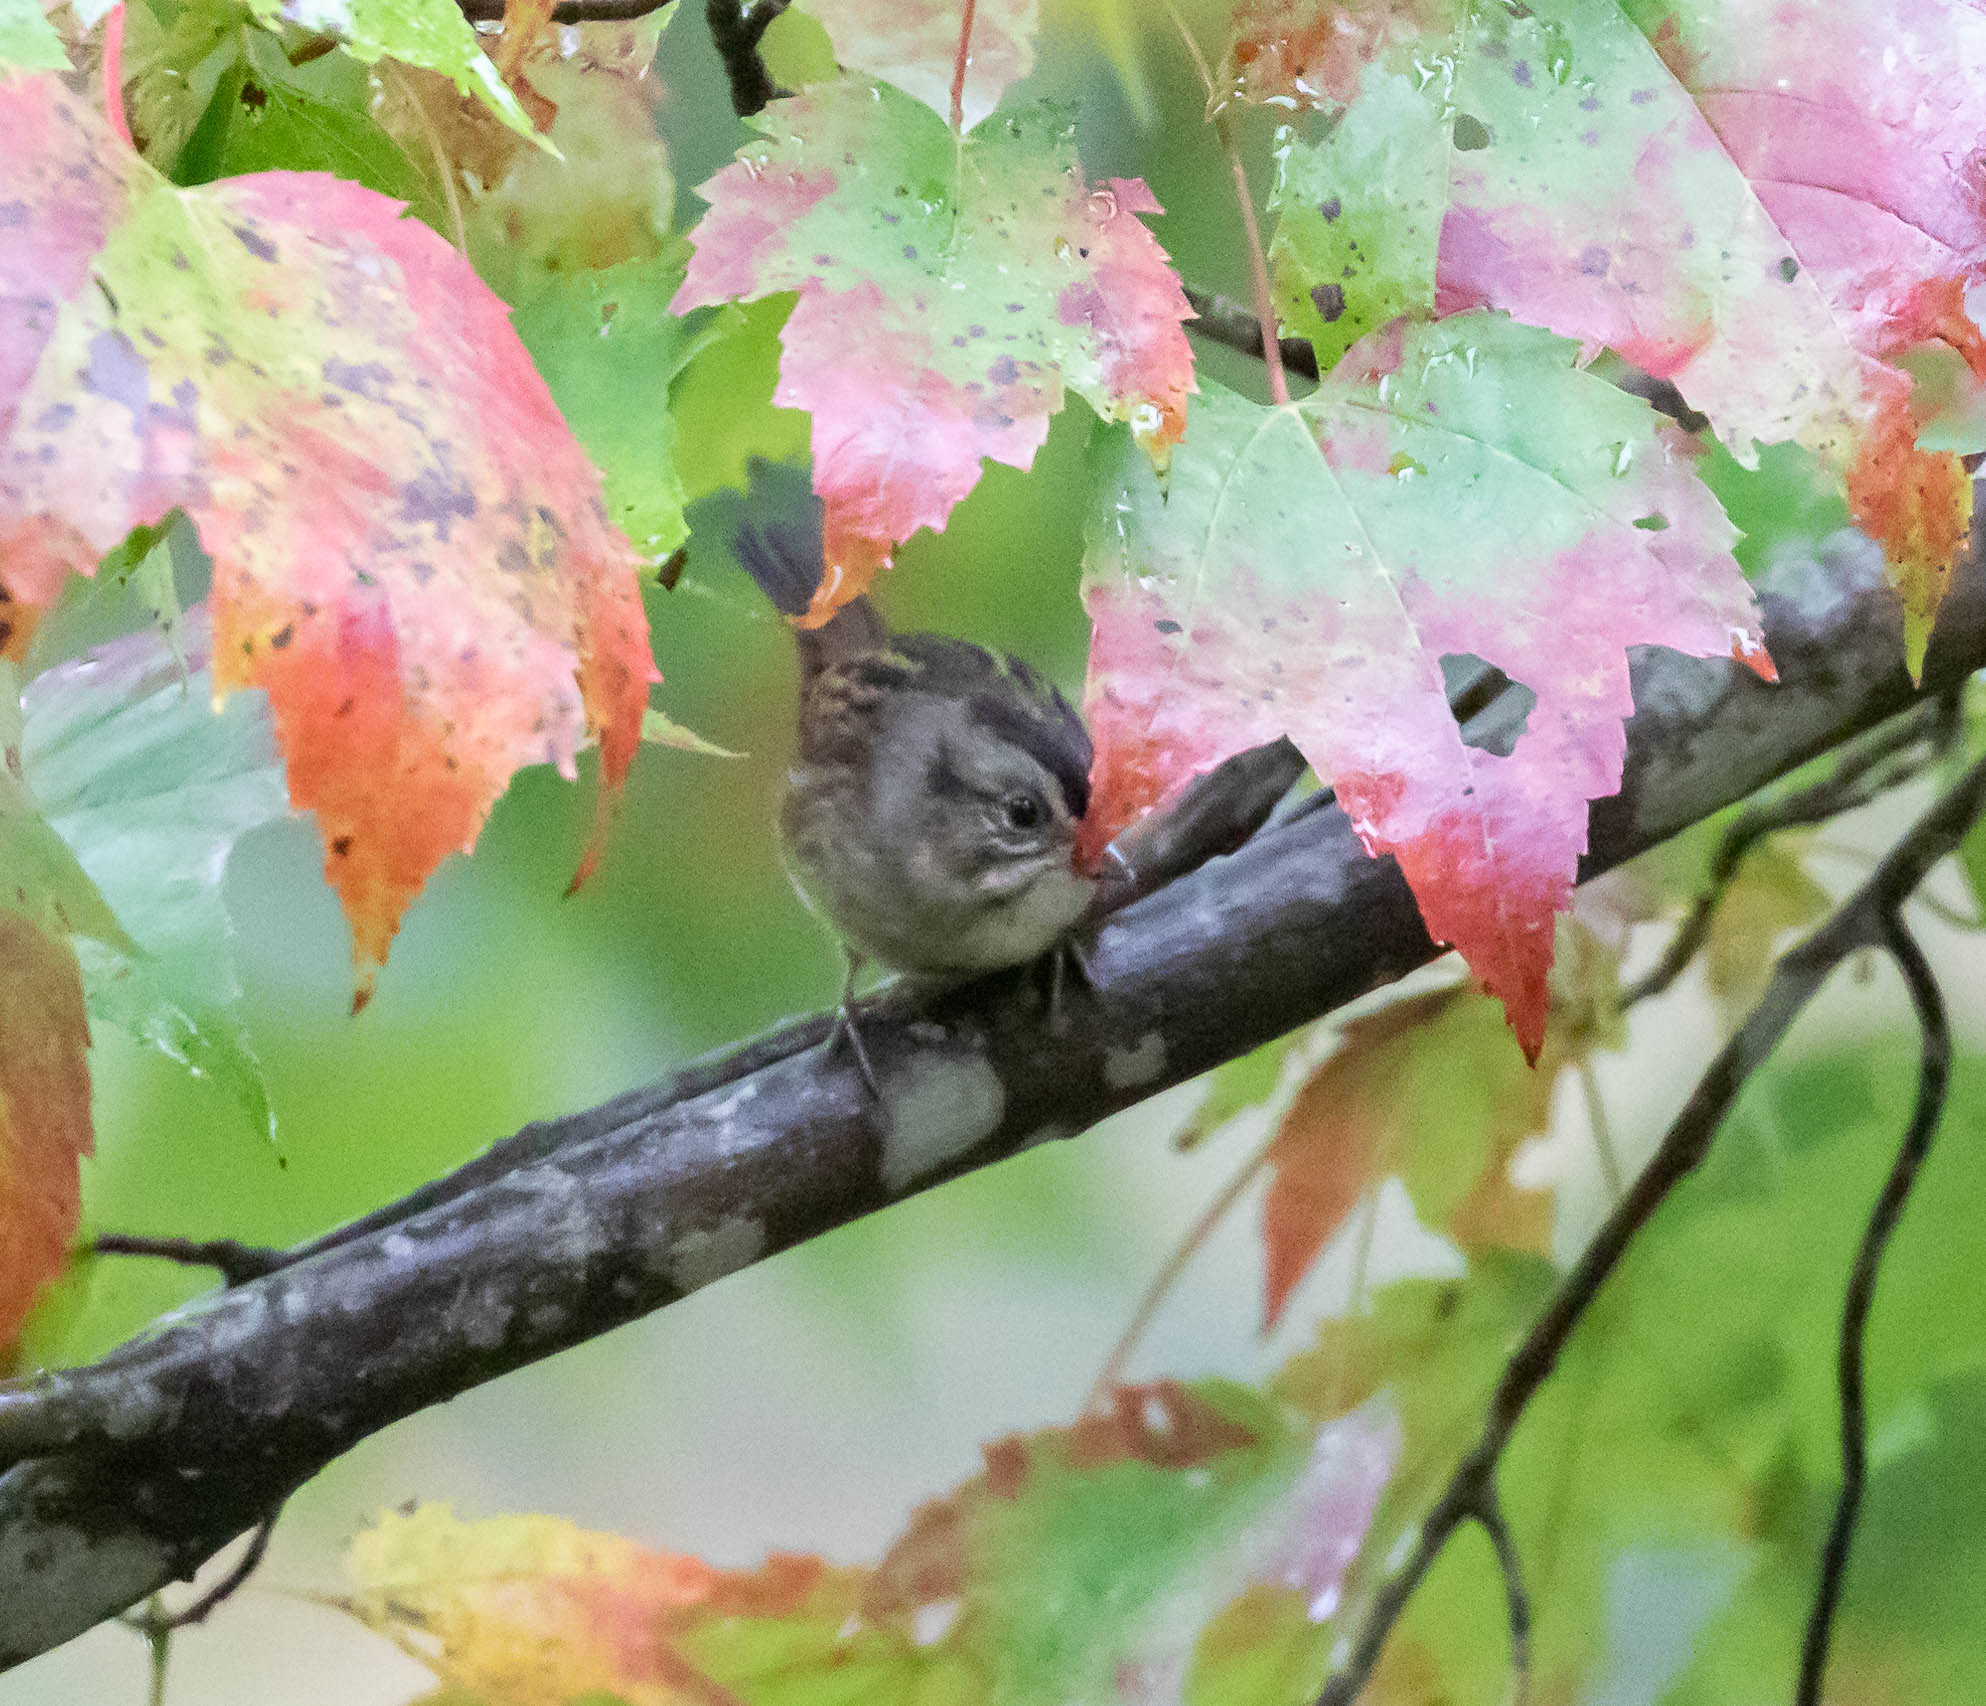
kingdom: Animalia
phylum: Chordata
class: Aves
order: Passeriformes
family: Passerellidae
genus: Melospiza
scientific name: Melospiza georgiana
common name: Swamp sparrow
